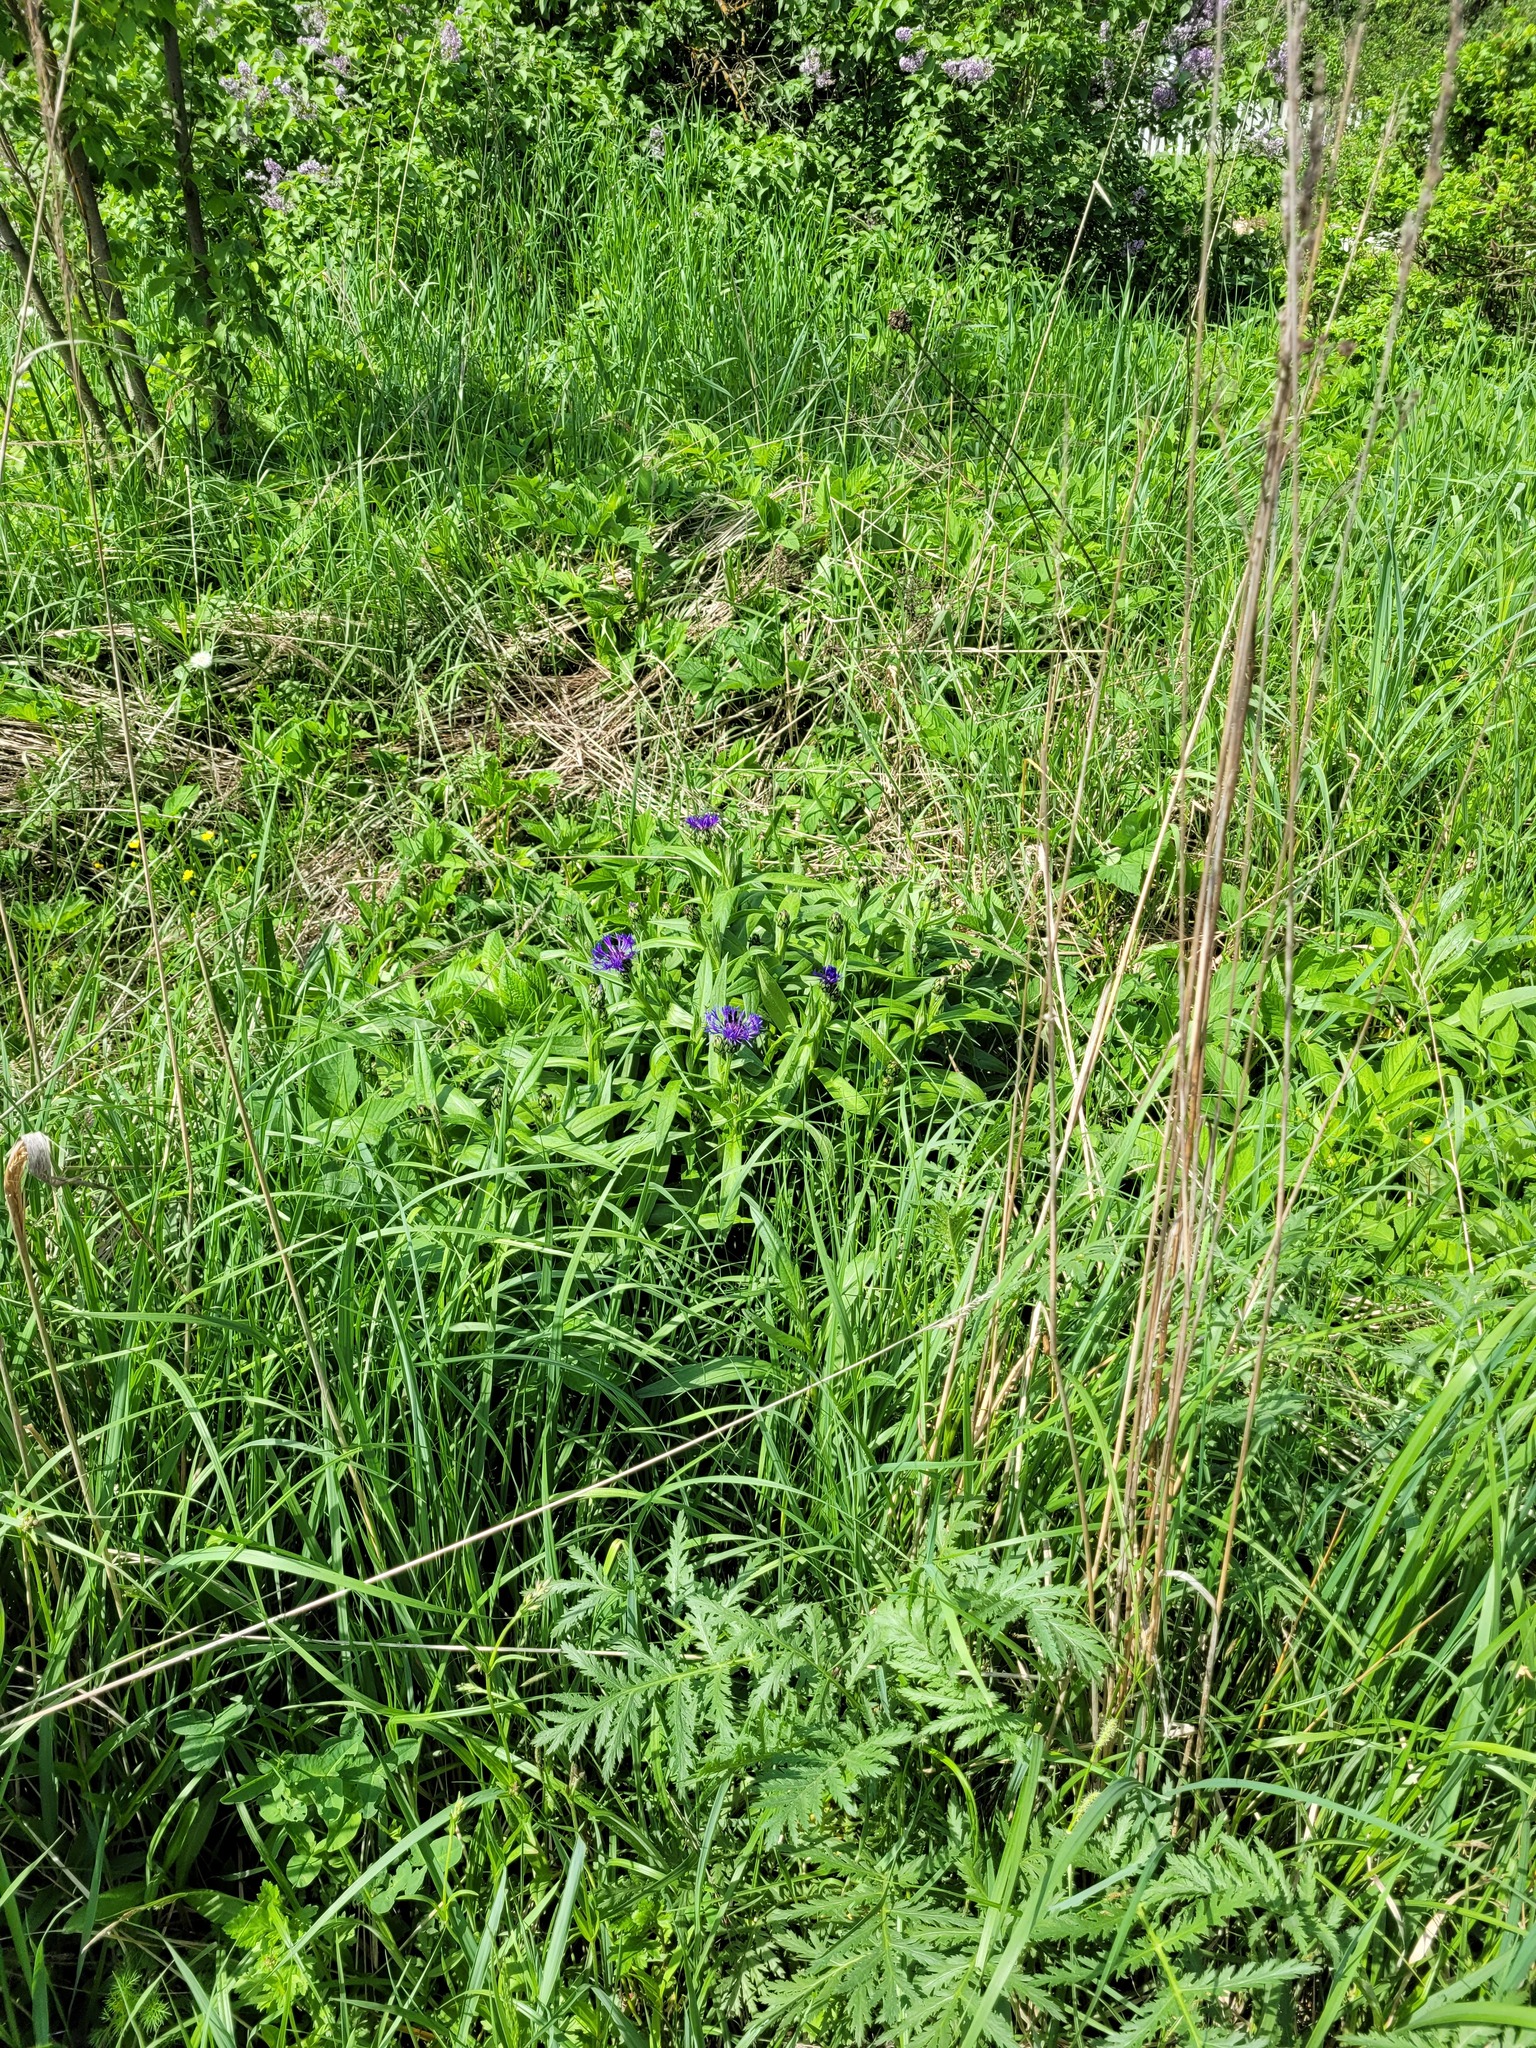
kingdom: Plantae
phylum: Tracheophyta
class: Magnoliopsida
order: Asterales
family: Asteraceae
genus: Centaurea
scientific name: Centaurea montana
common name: Perennial cornflower
